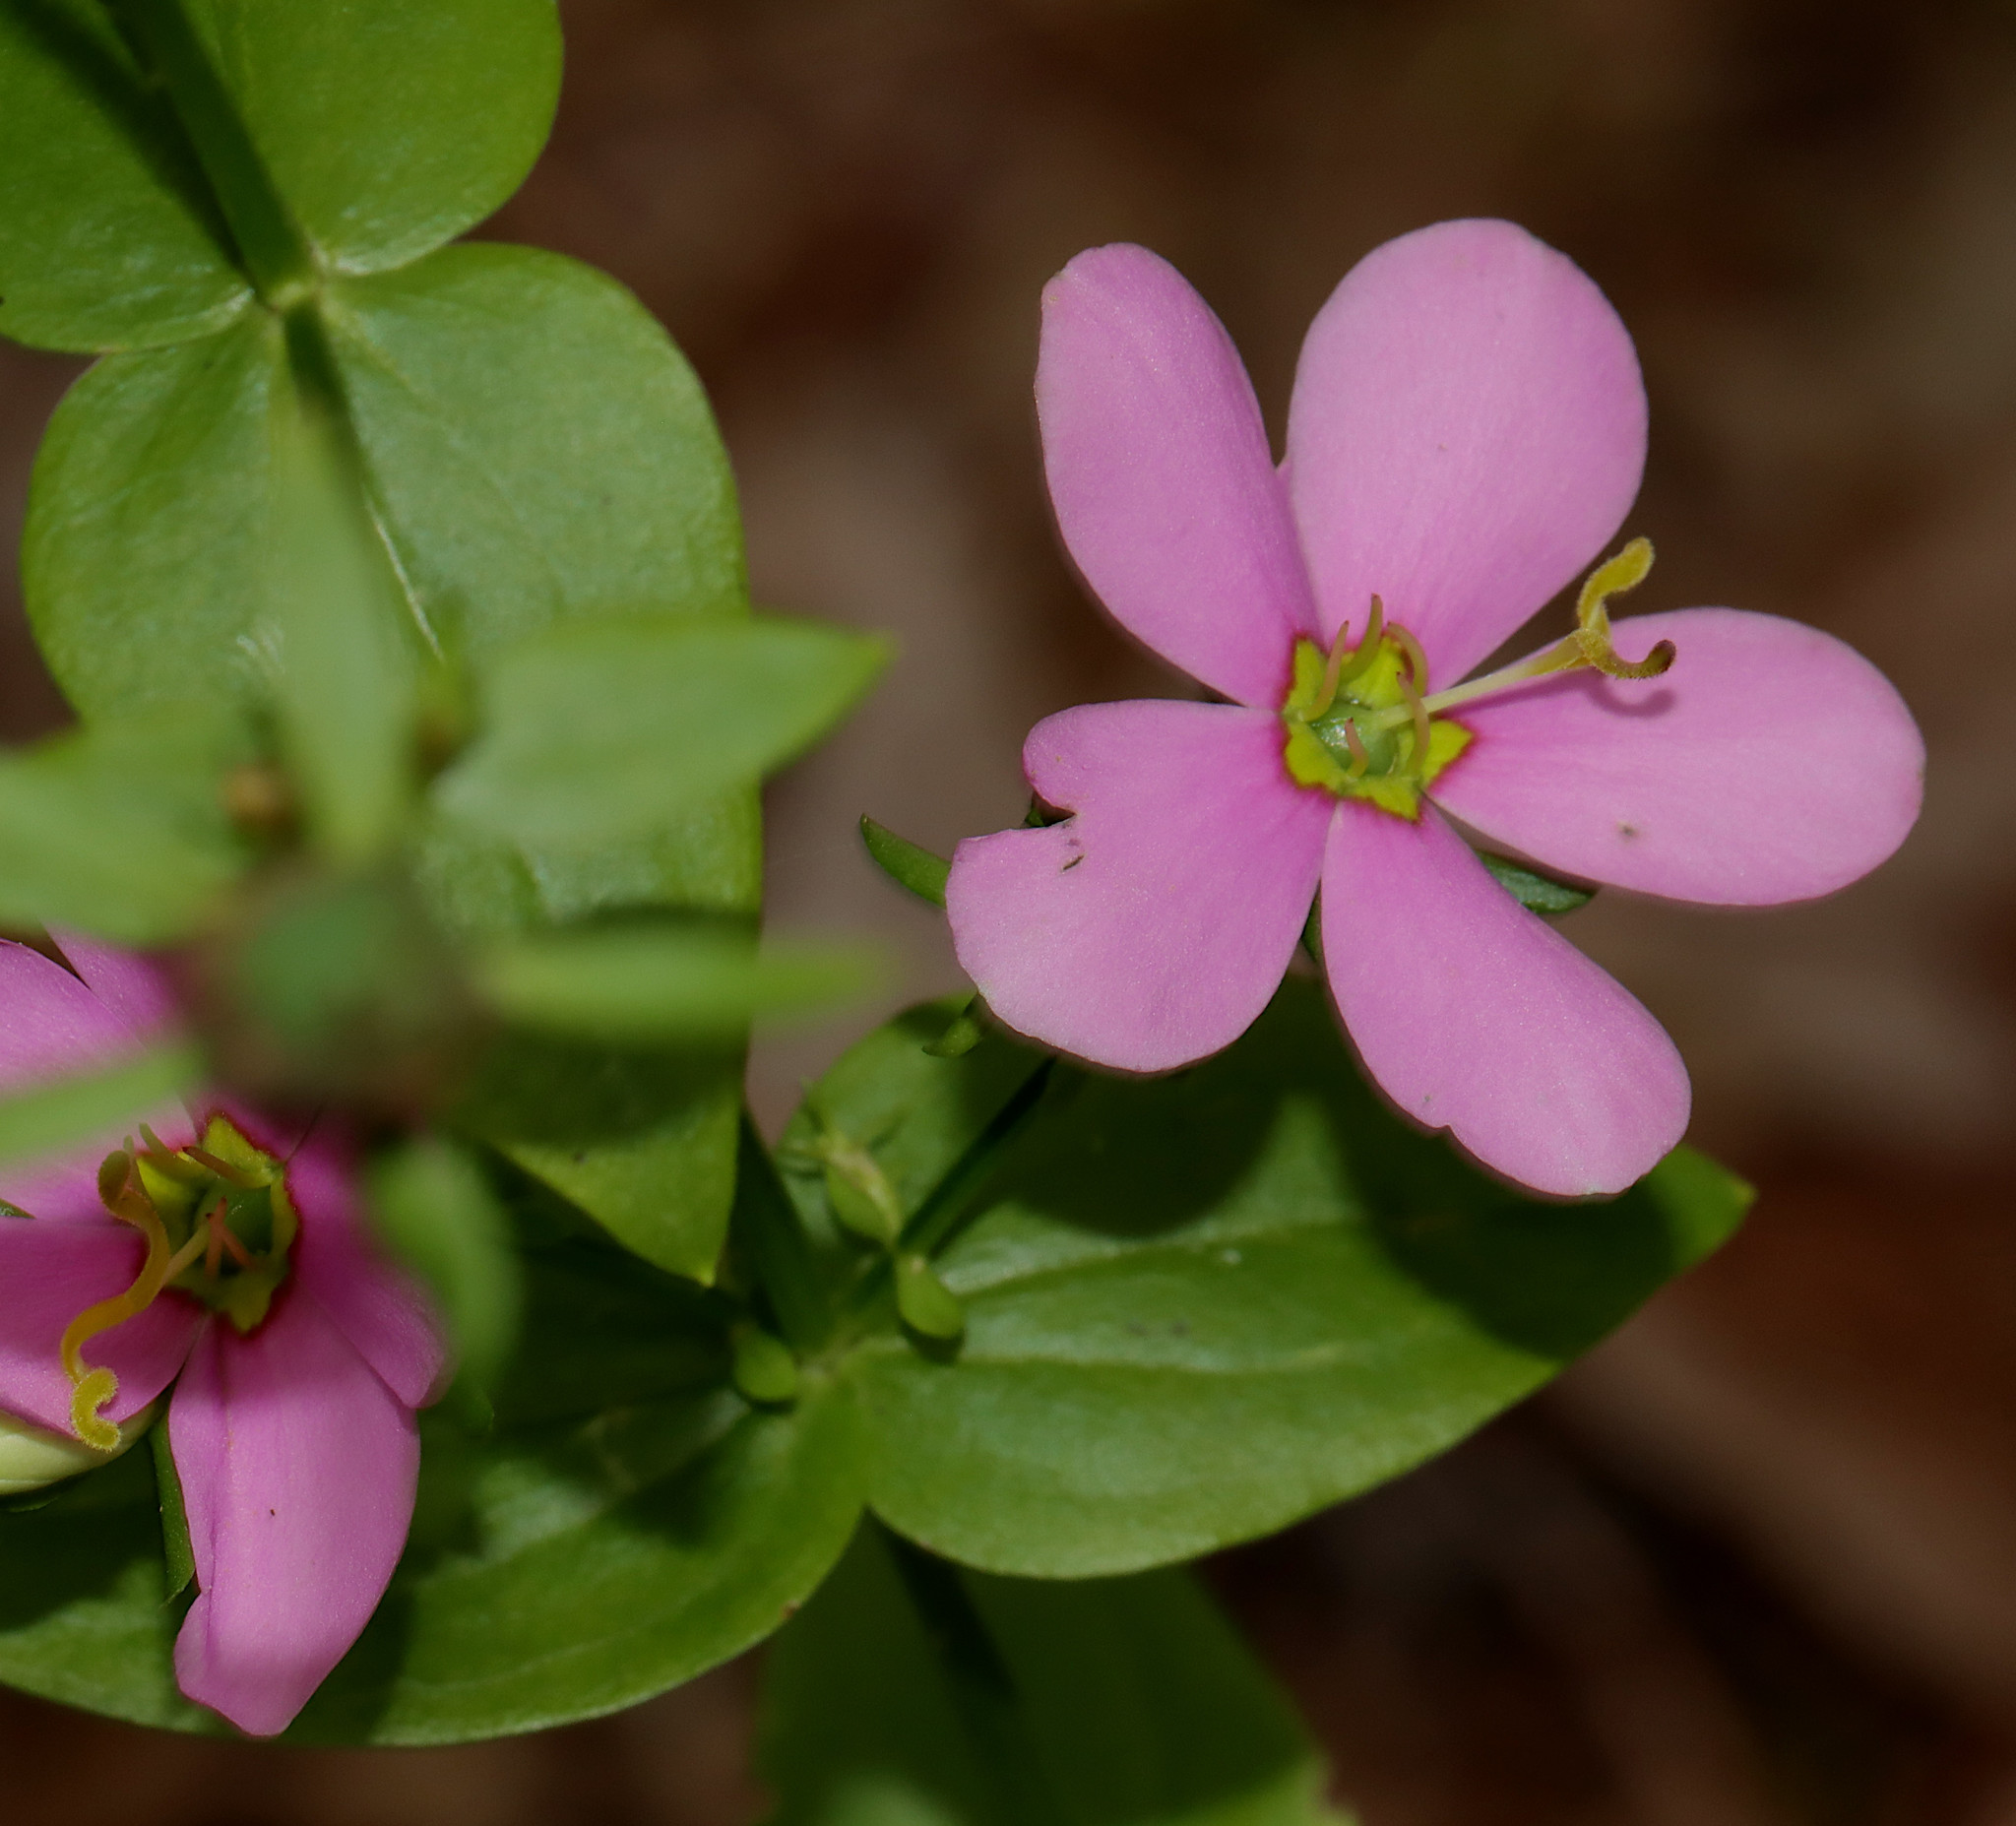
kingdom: Plantae
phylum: Tracheophyta
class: Magnoliopsida
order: Gentianales
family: Gentianaceae
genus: Sabatia
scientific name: Sabatia angularis
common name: Rose-pink
